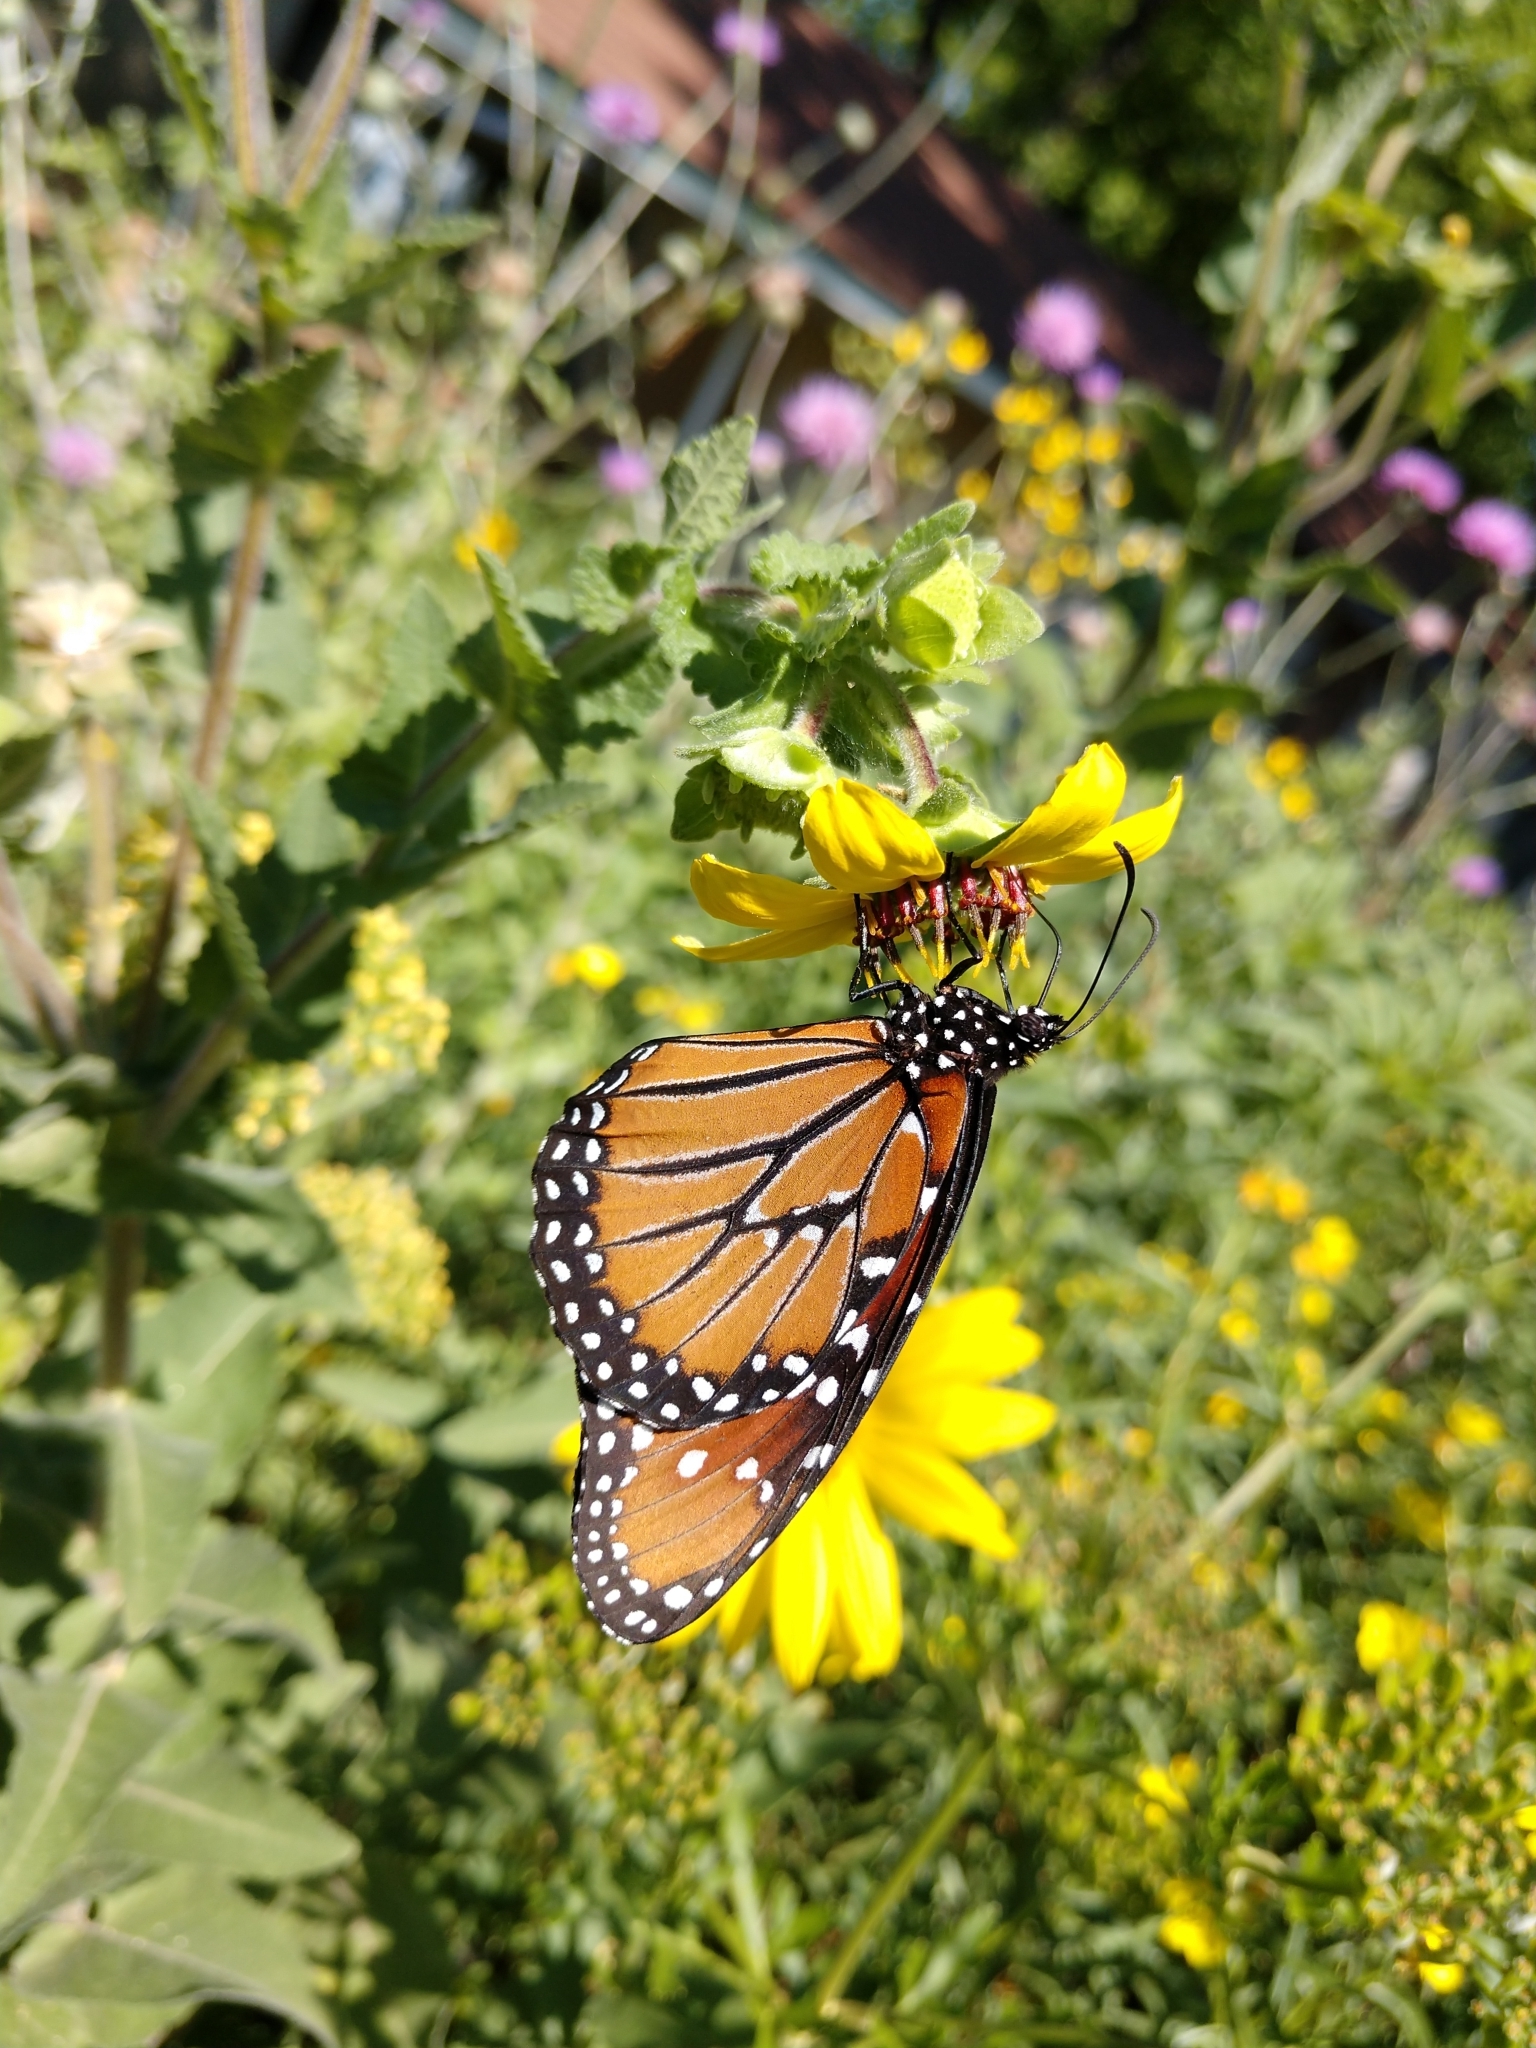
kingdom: Animalia
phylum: Arthropoda
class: Insecta
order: Lepidoptera
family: Nymphalidae
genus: Danaus
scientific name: Danaus gilippus
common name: Queen
